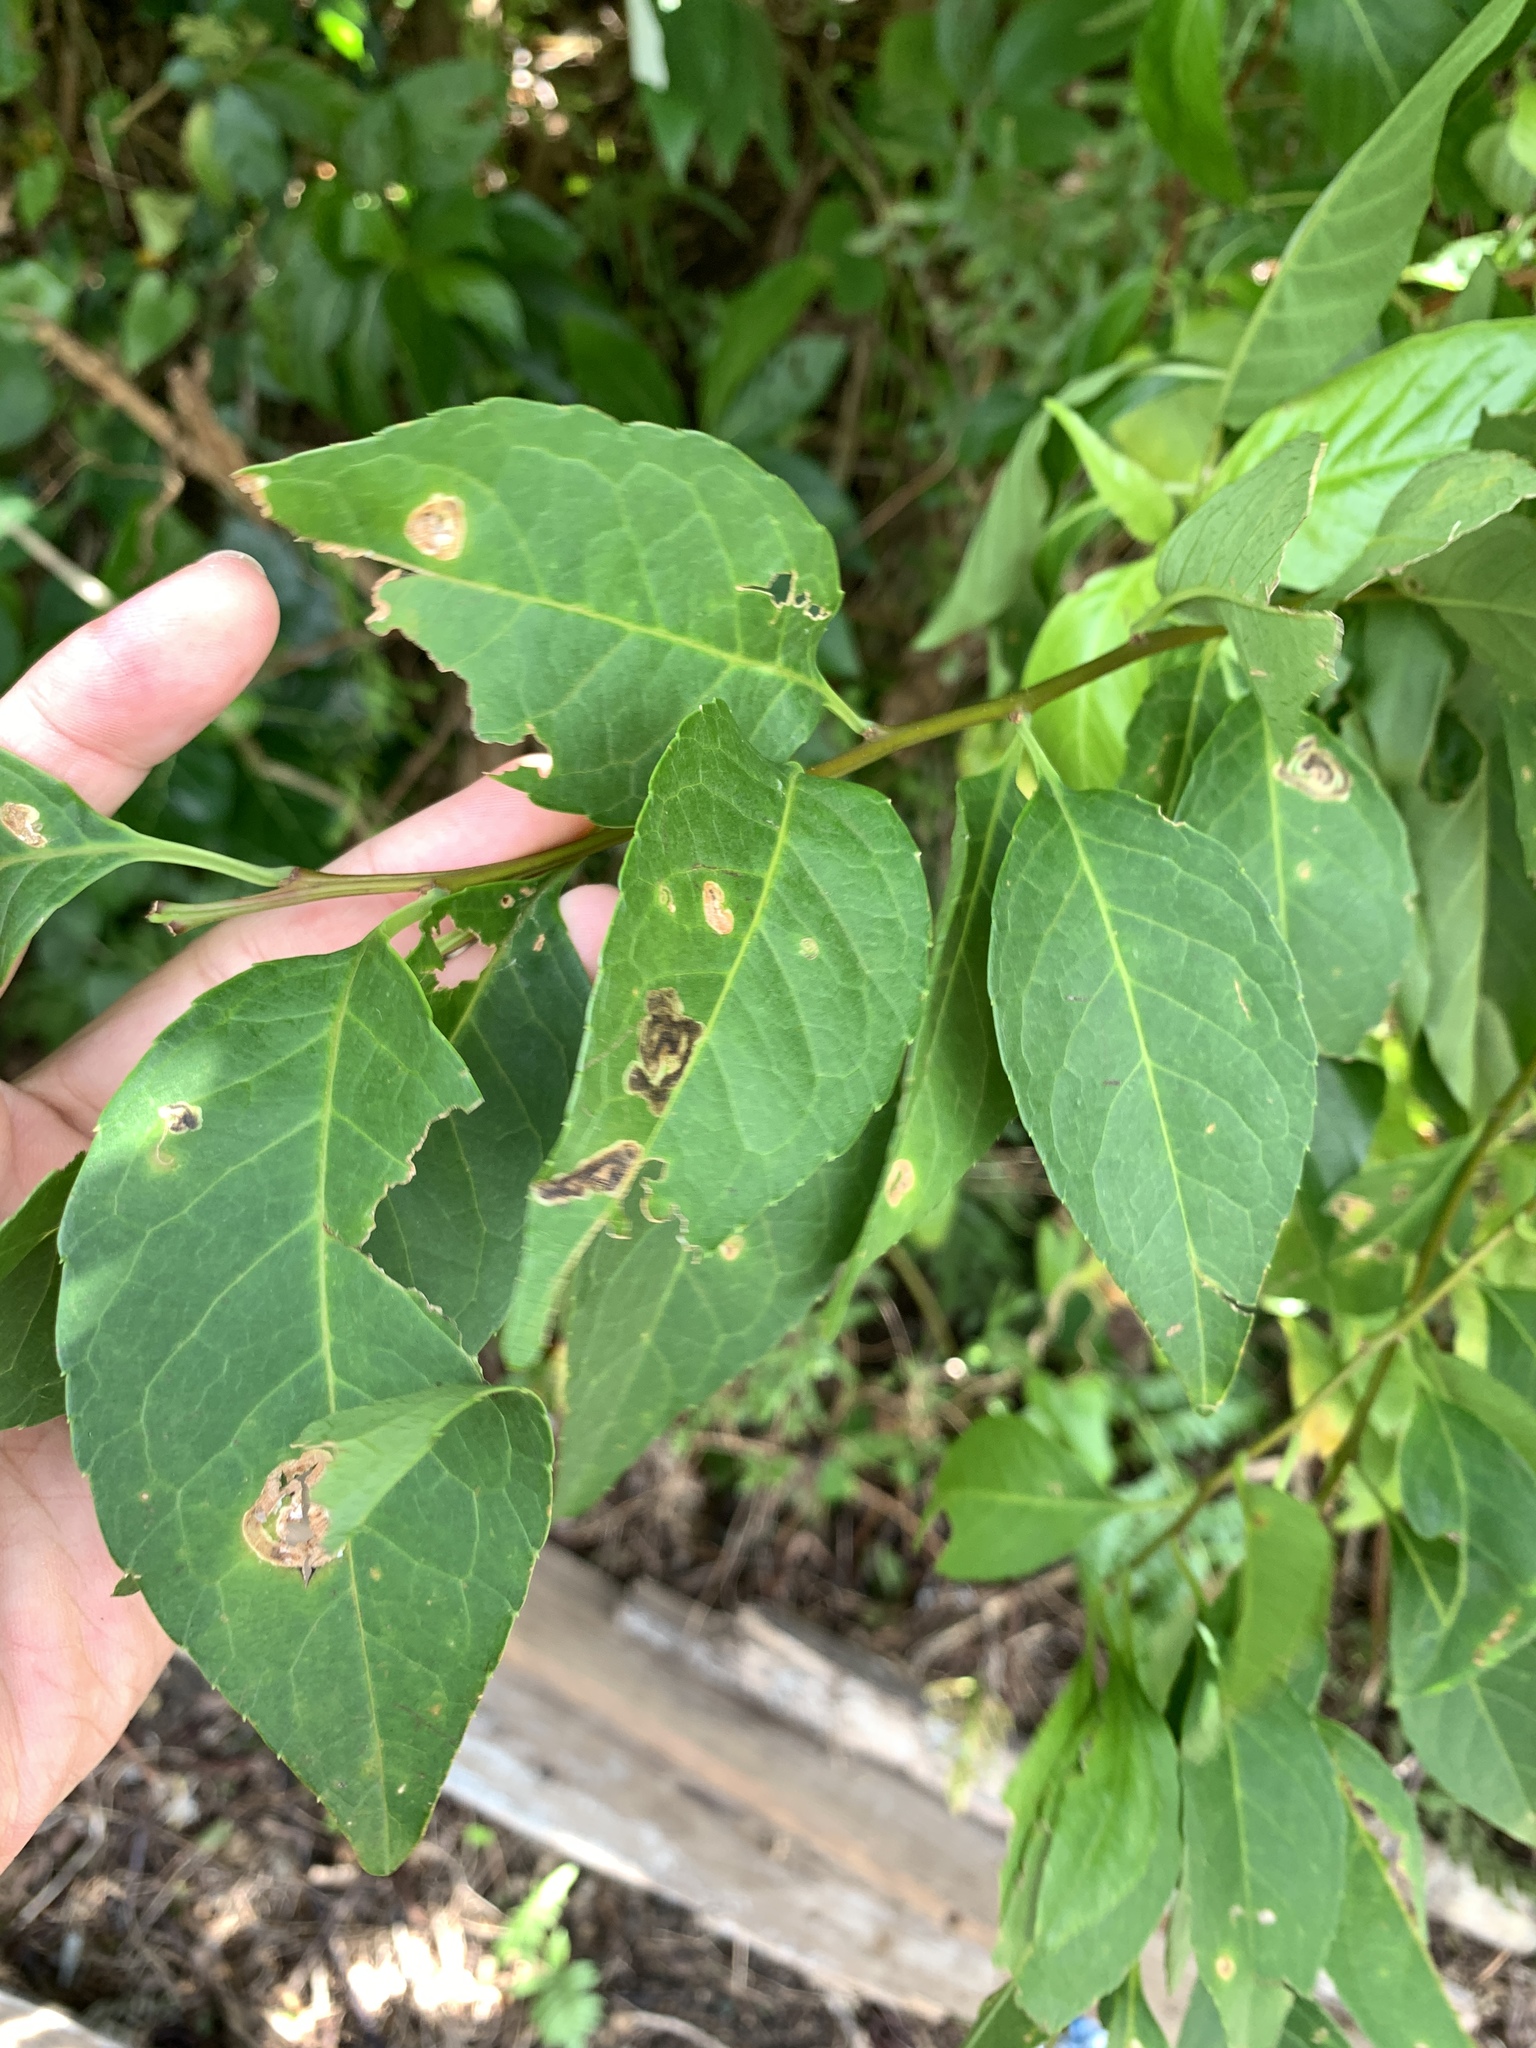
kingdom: Plantae
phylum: Tracheophyta
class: Magnoliopsida
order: Aquifoliales
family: Aquifoliaceae
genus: Ilex
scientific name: Ilex kusanoi
